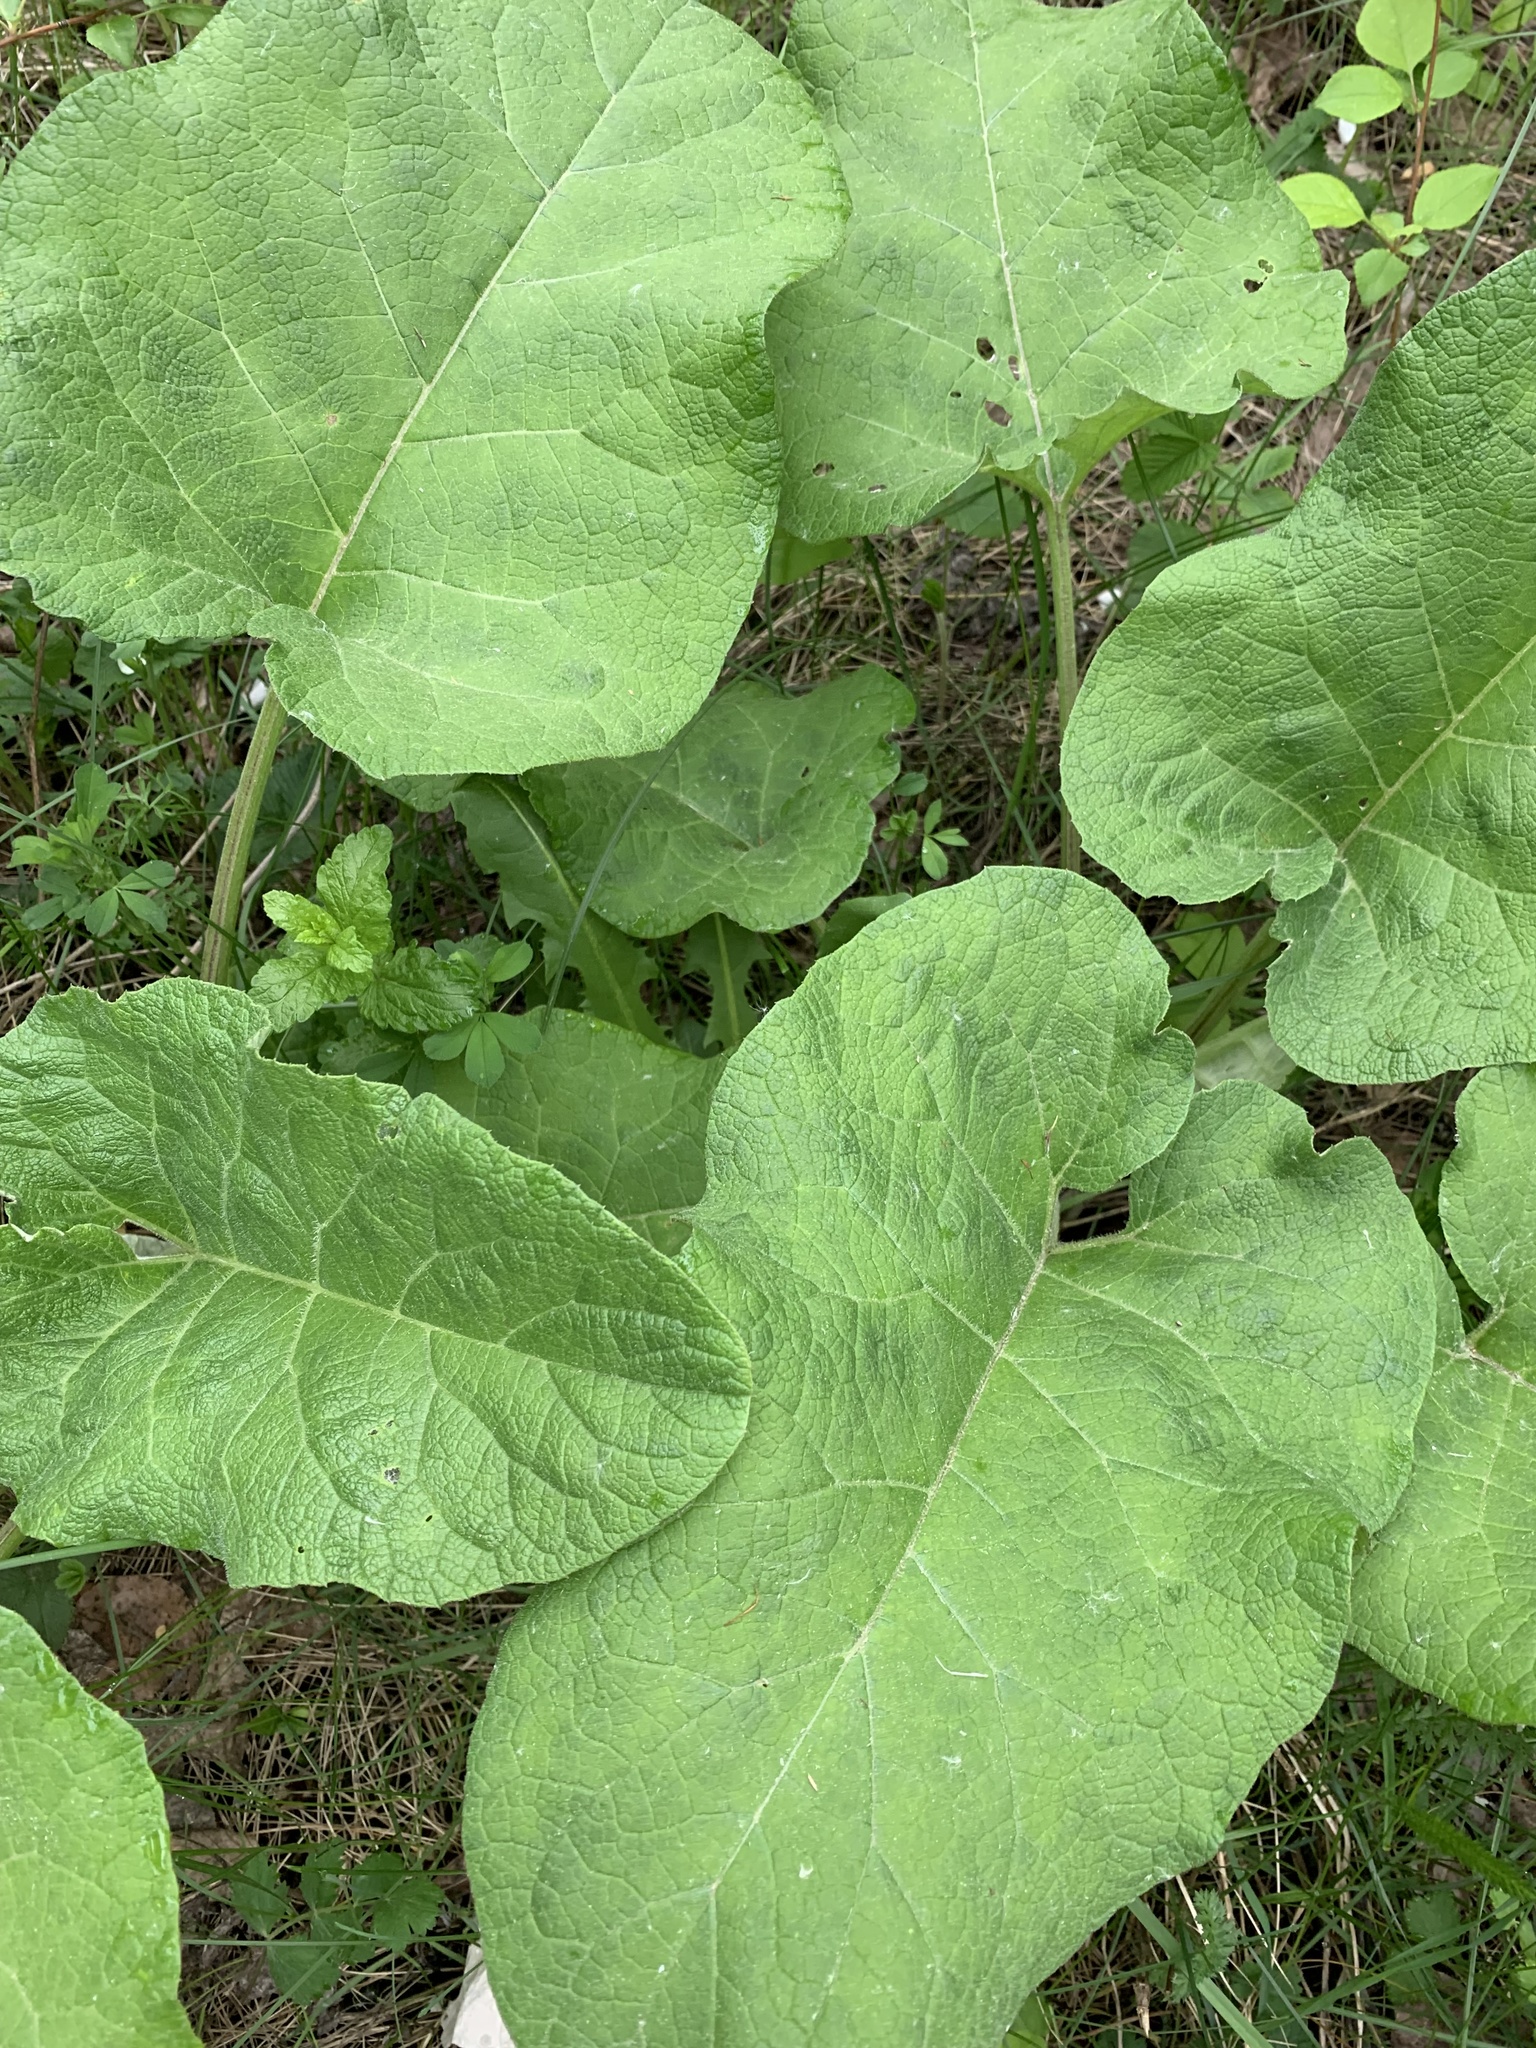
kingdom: Plantae
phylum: Tracheophyta
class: Magnoliopsida
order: Asterales
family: Asteraceae
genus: Arctium
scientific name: Arctium tomentosum
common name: Woolly burdock
